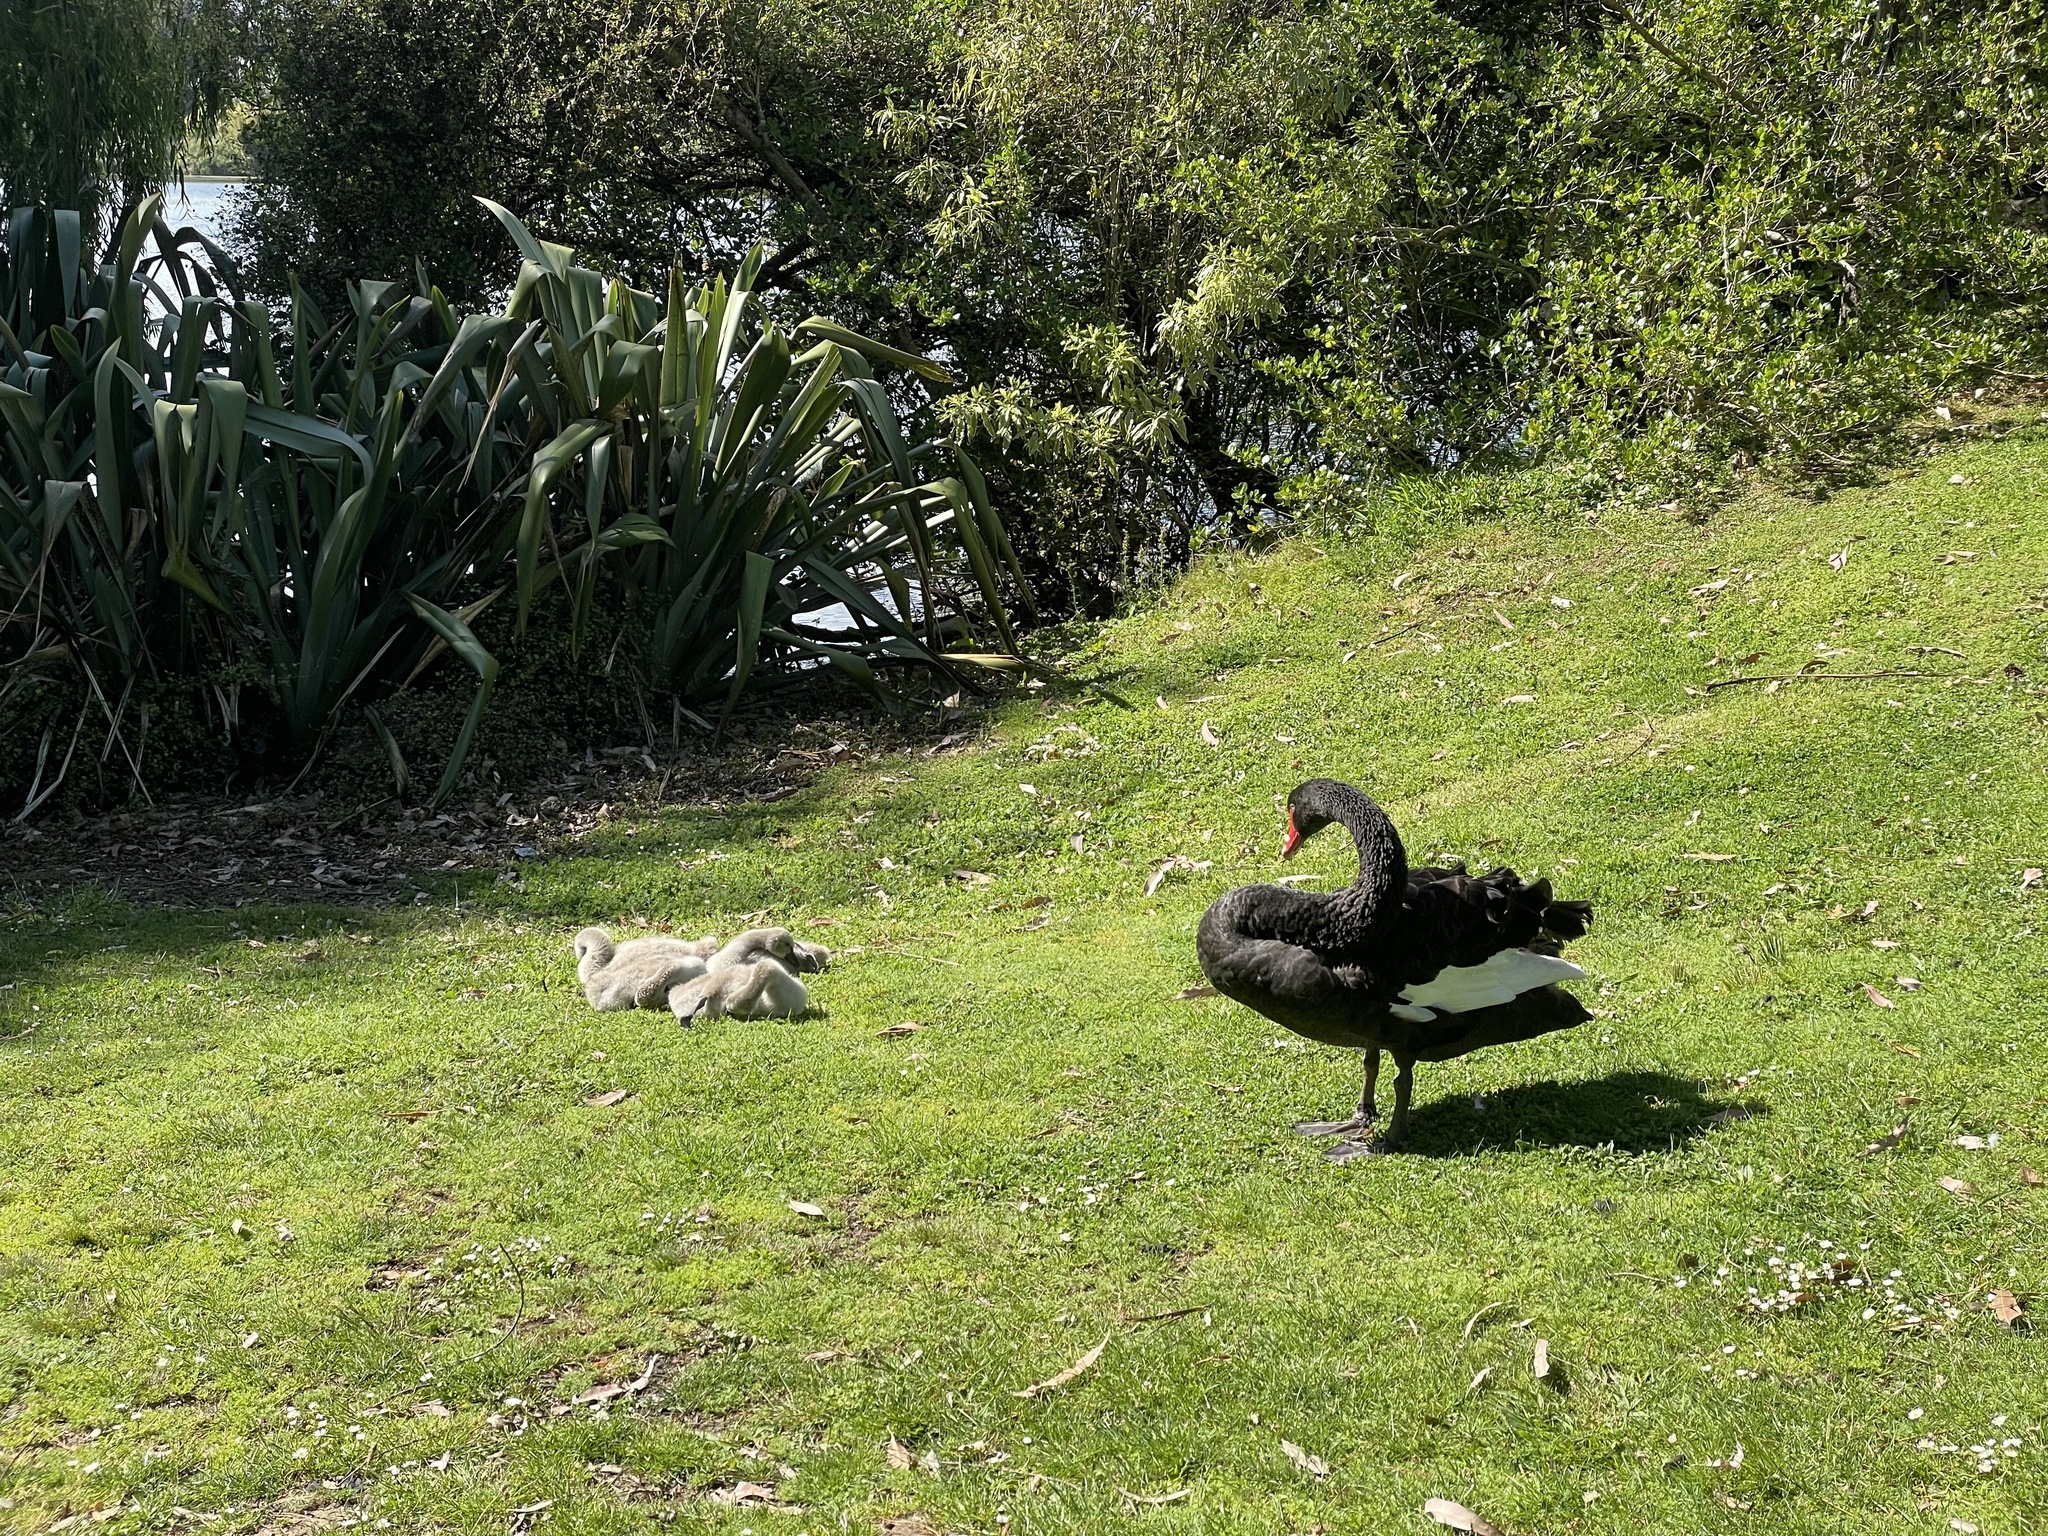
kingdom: Animalia
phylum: Chordata
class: Aves
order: Anseriformes
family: Anatidae
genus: Cygnus
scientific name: Cygnus atratus
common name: Black swan
